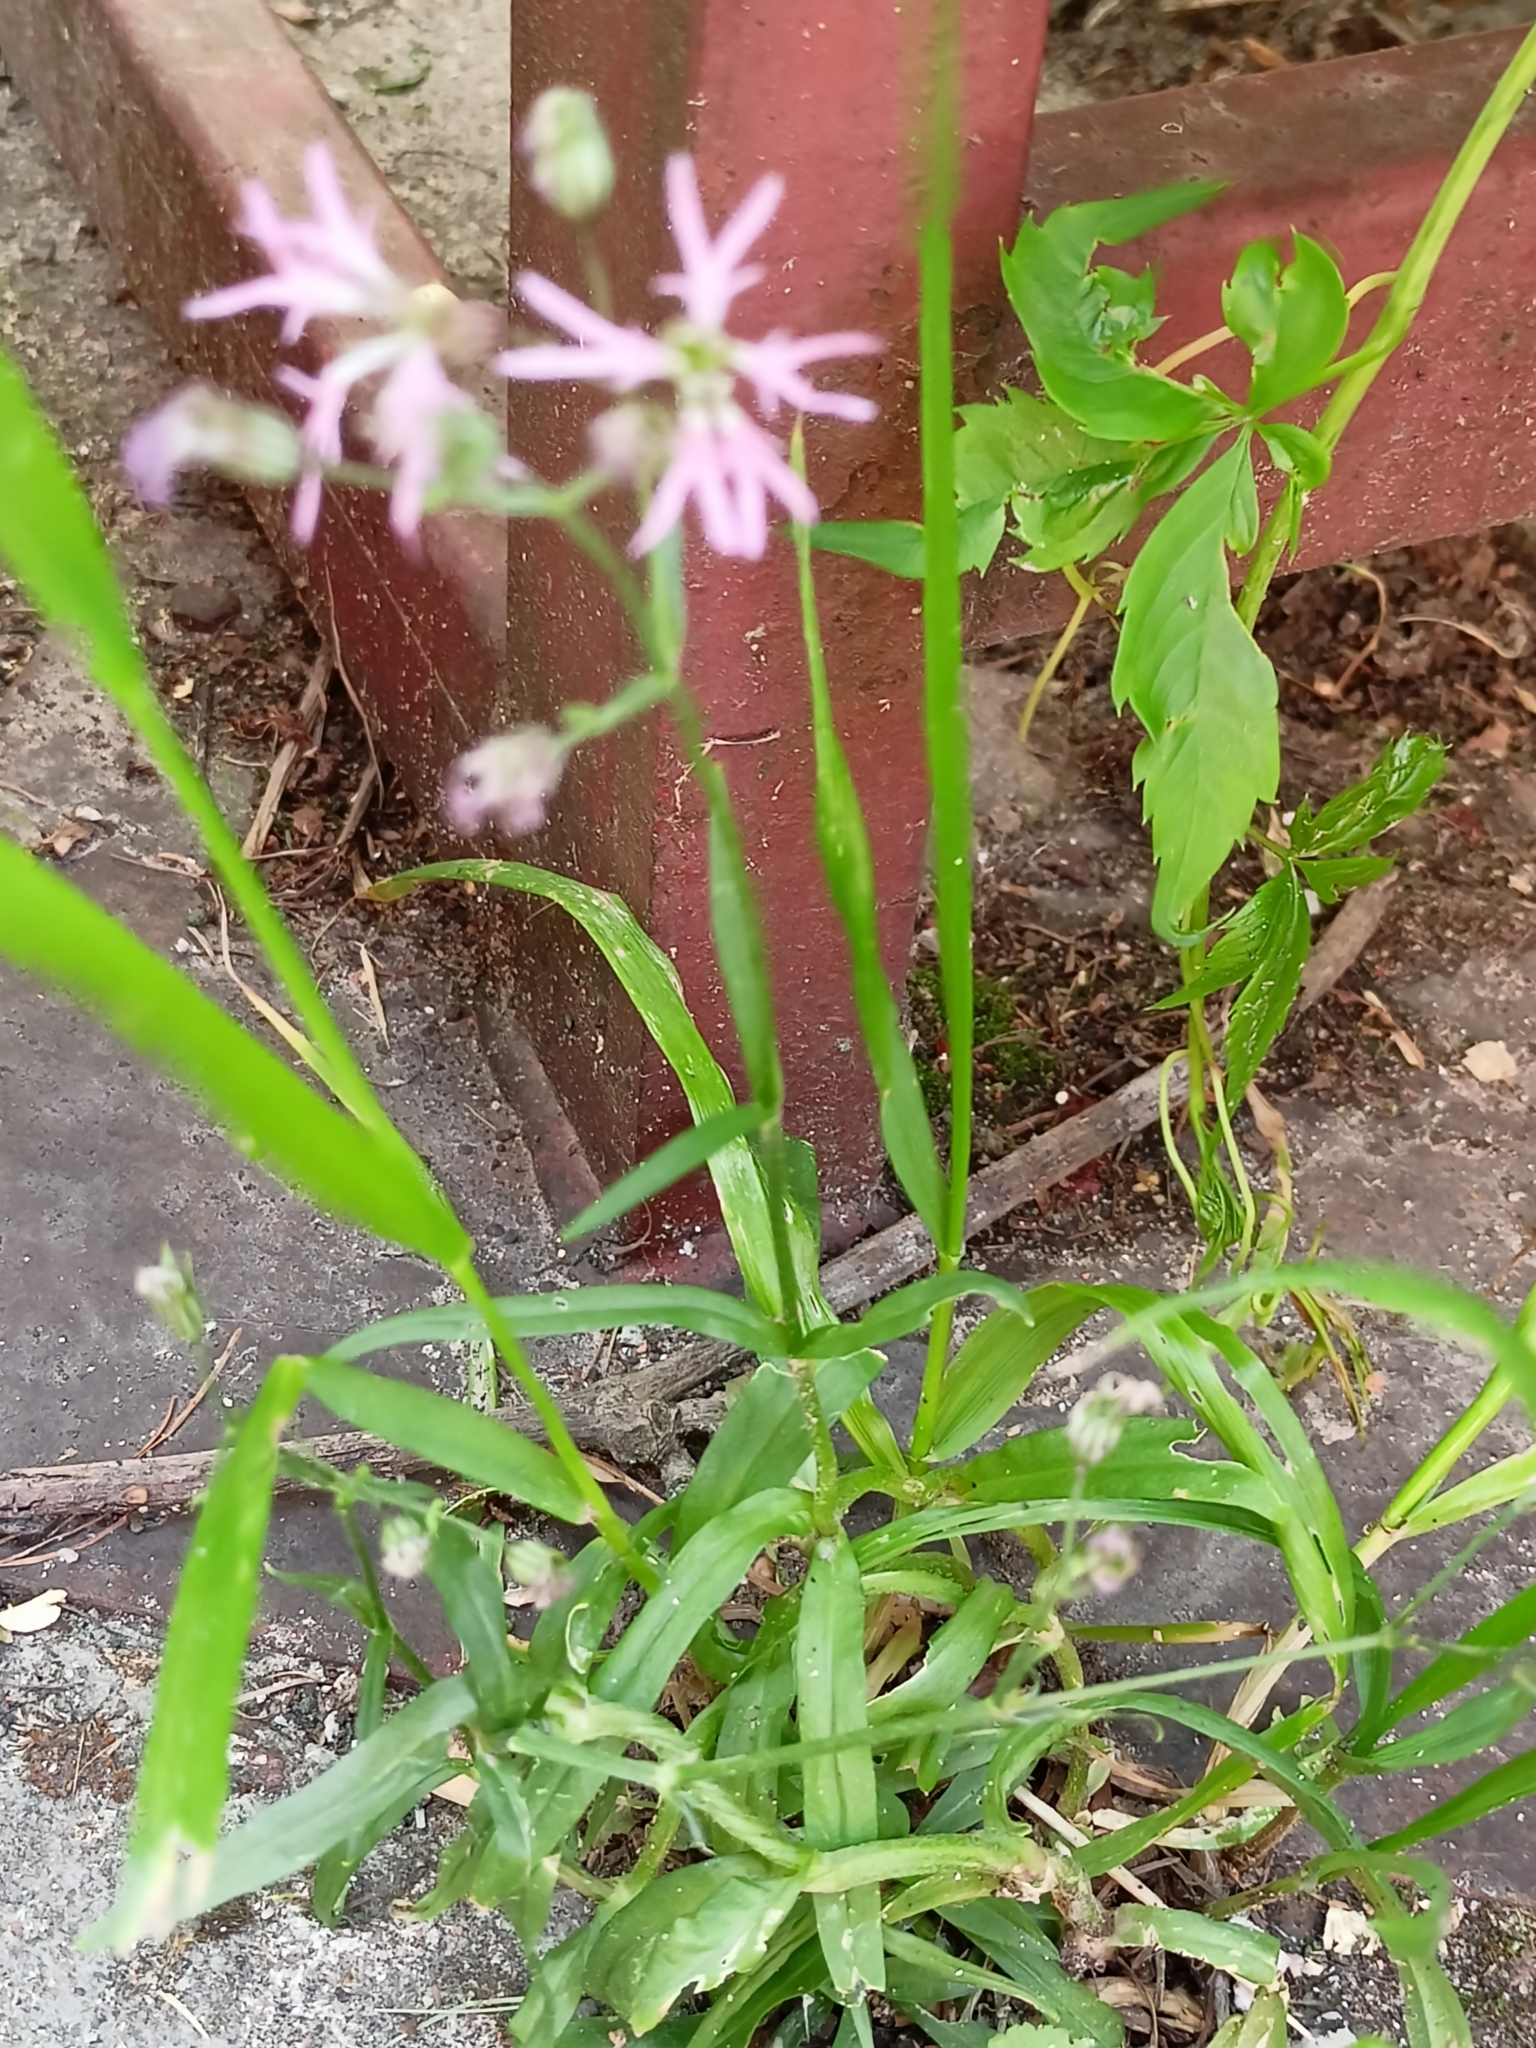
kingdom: Plantae
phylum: Tracheophyta
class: Magnoliopsida
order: Caryophyllales
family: Caryophyllaceae
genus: Silene
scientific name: Silene flos-cuculi
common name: Ragged-robin
